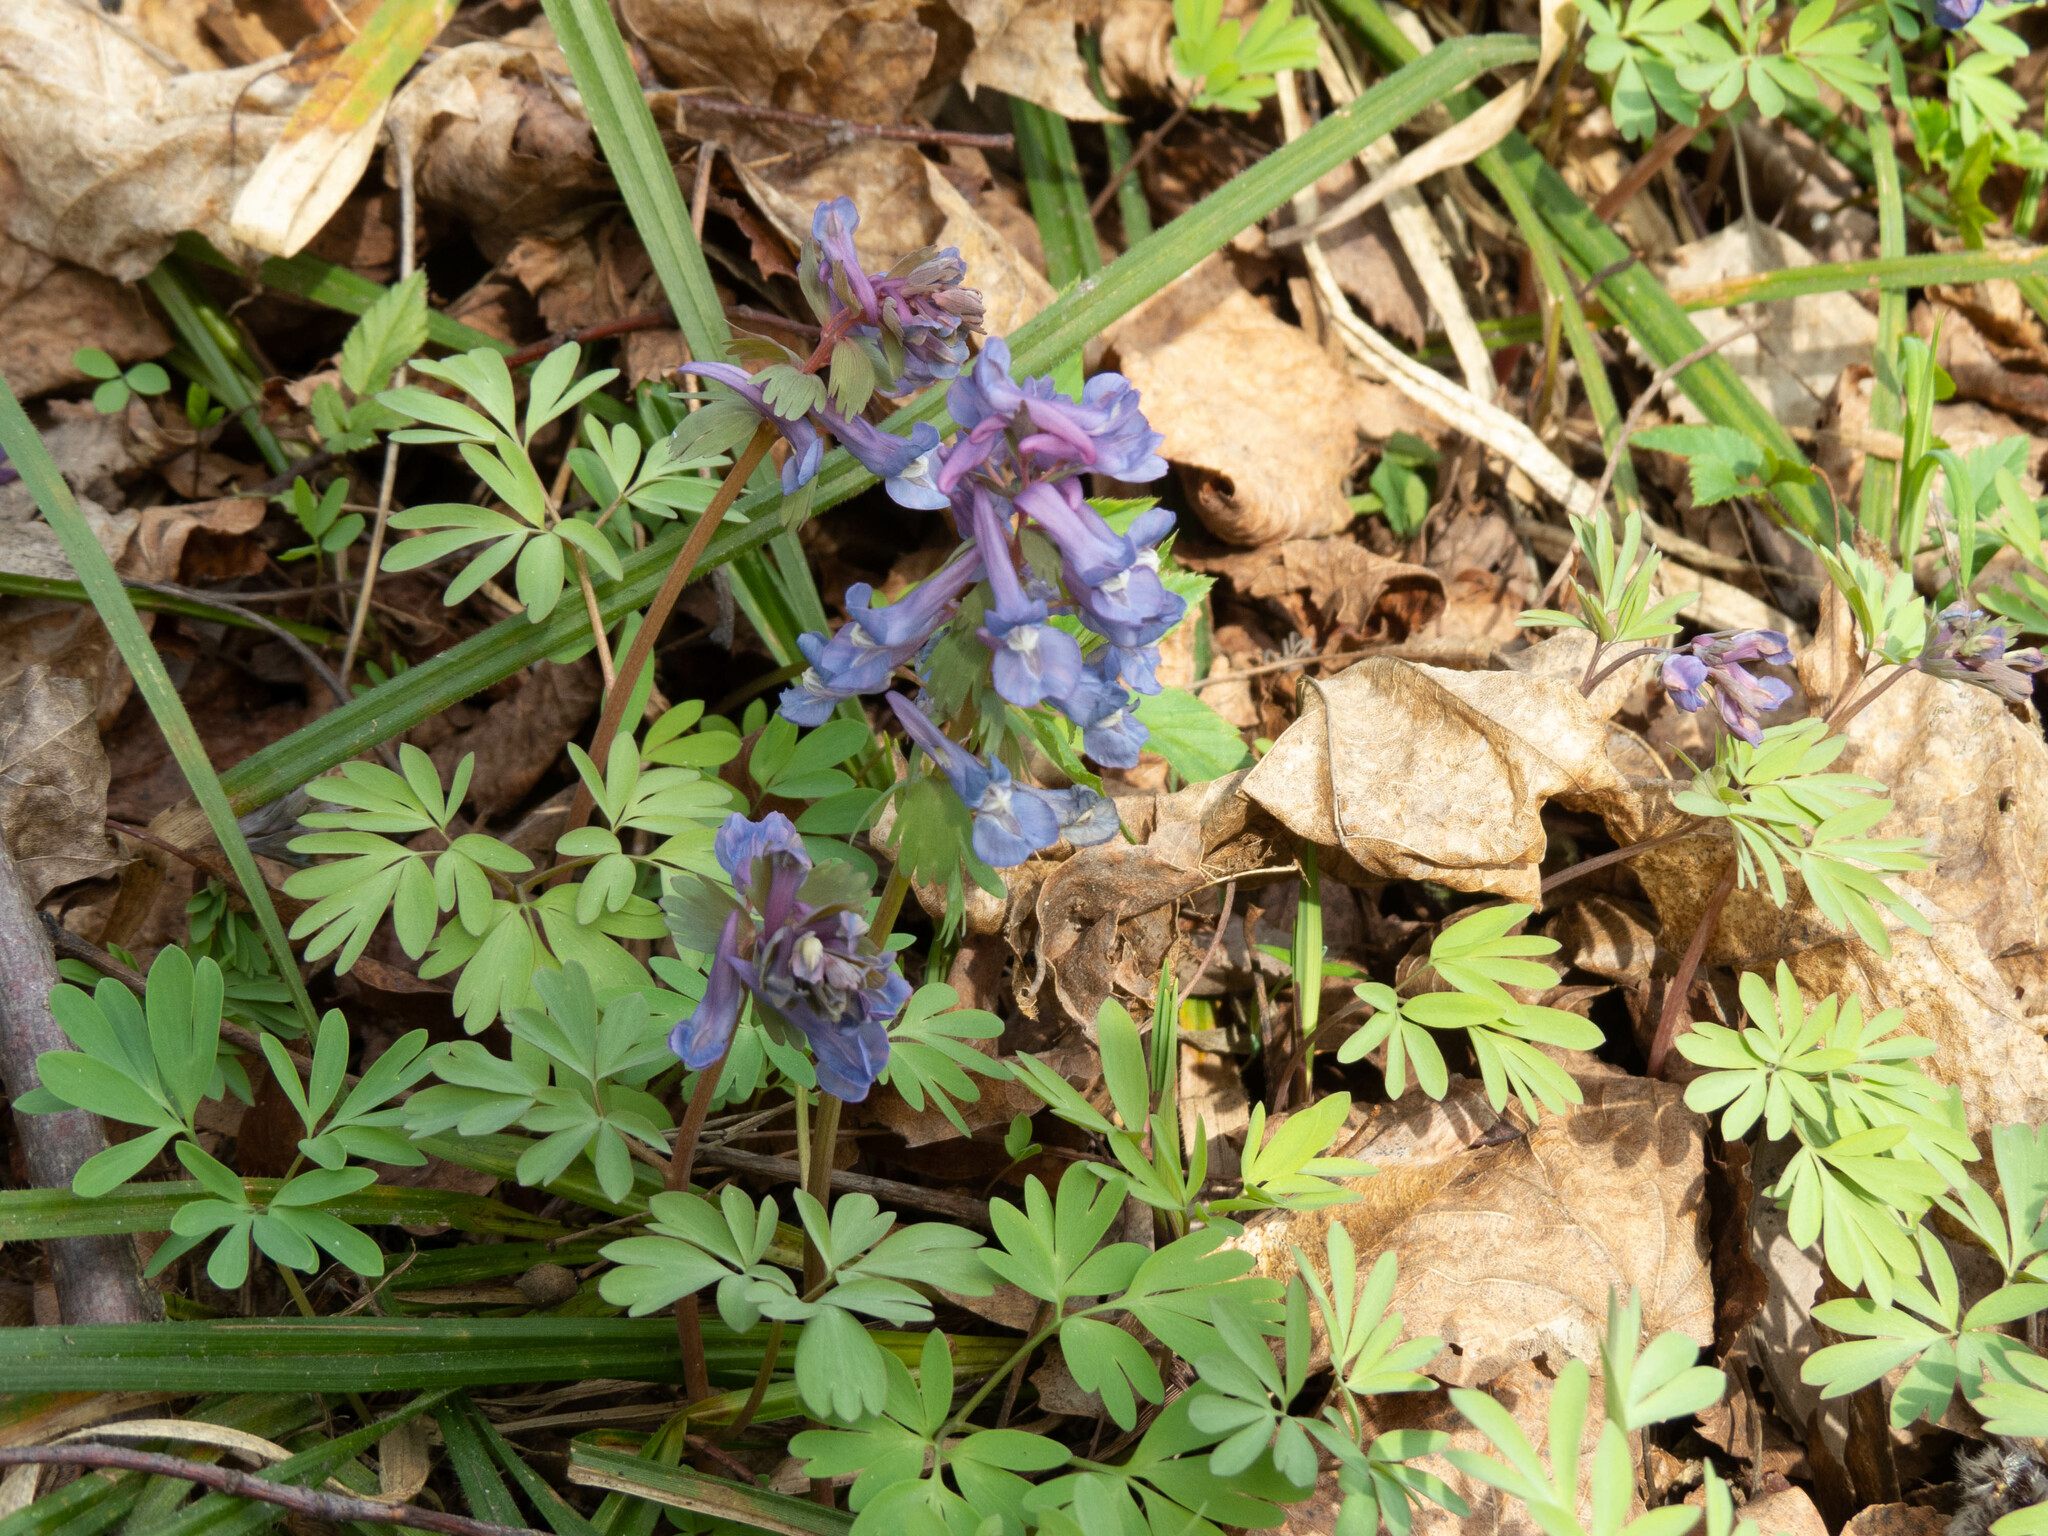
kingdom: Plantae
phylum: Tracheophyta
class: Magnoliopsida
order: Ranunculales
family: Papaveraceae
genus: Corydalis
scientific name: Corydalis solida
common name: Bird-in-a-bush
